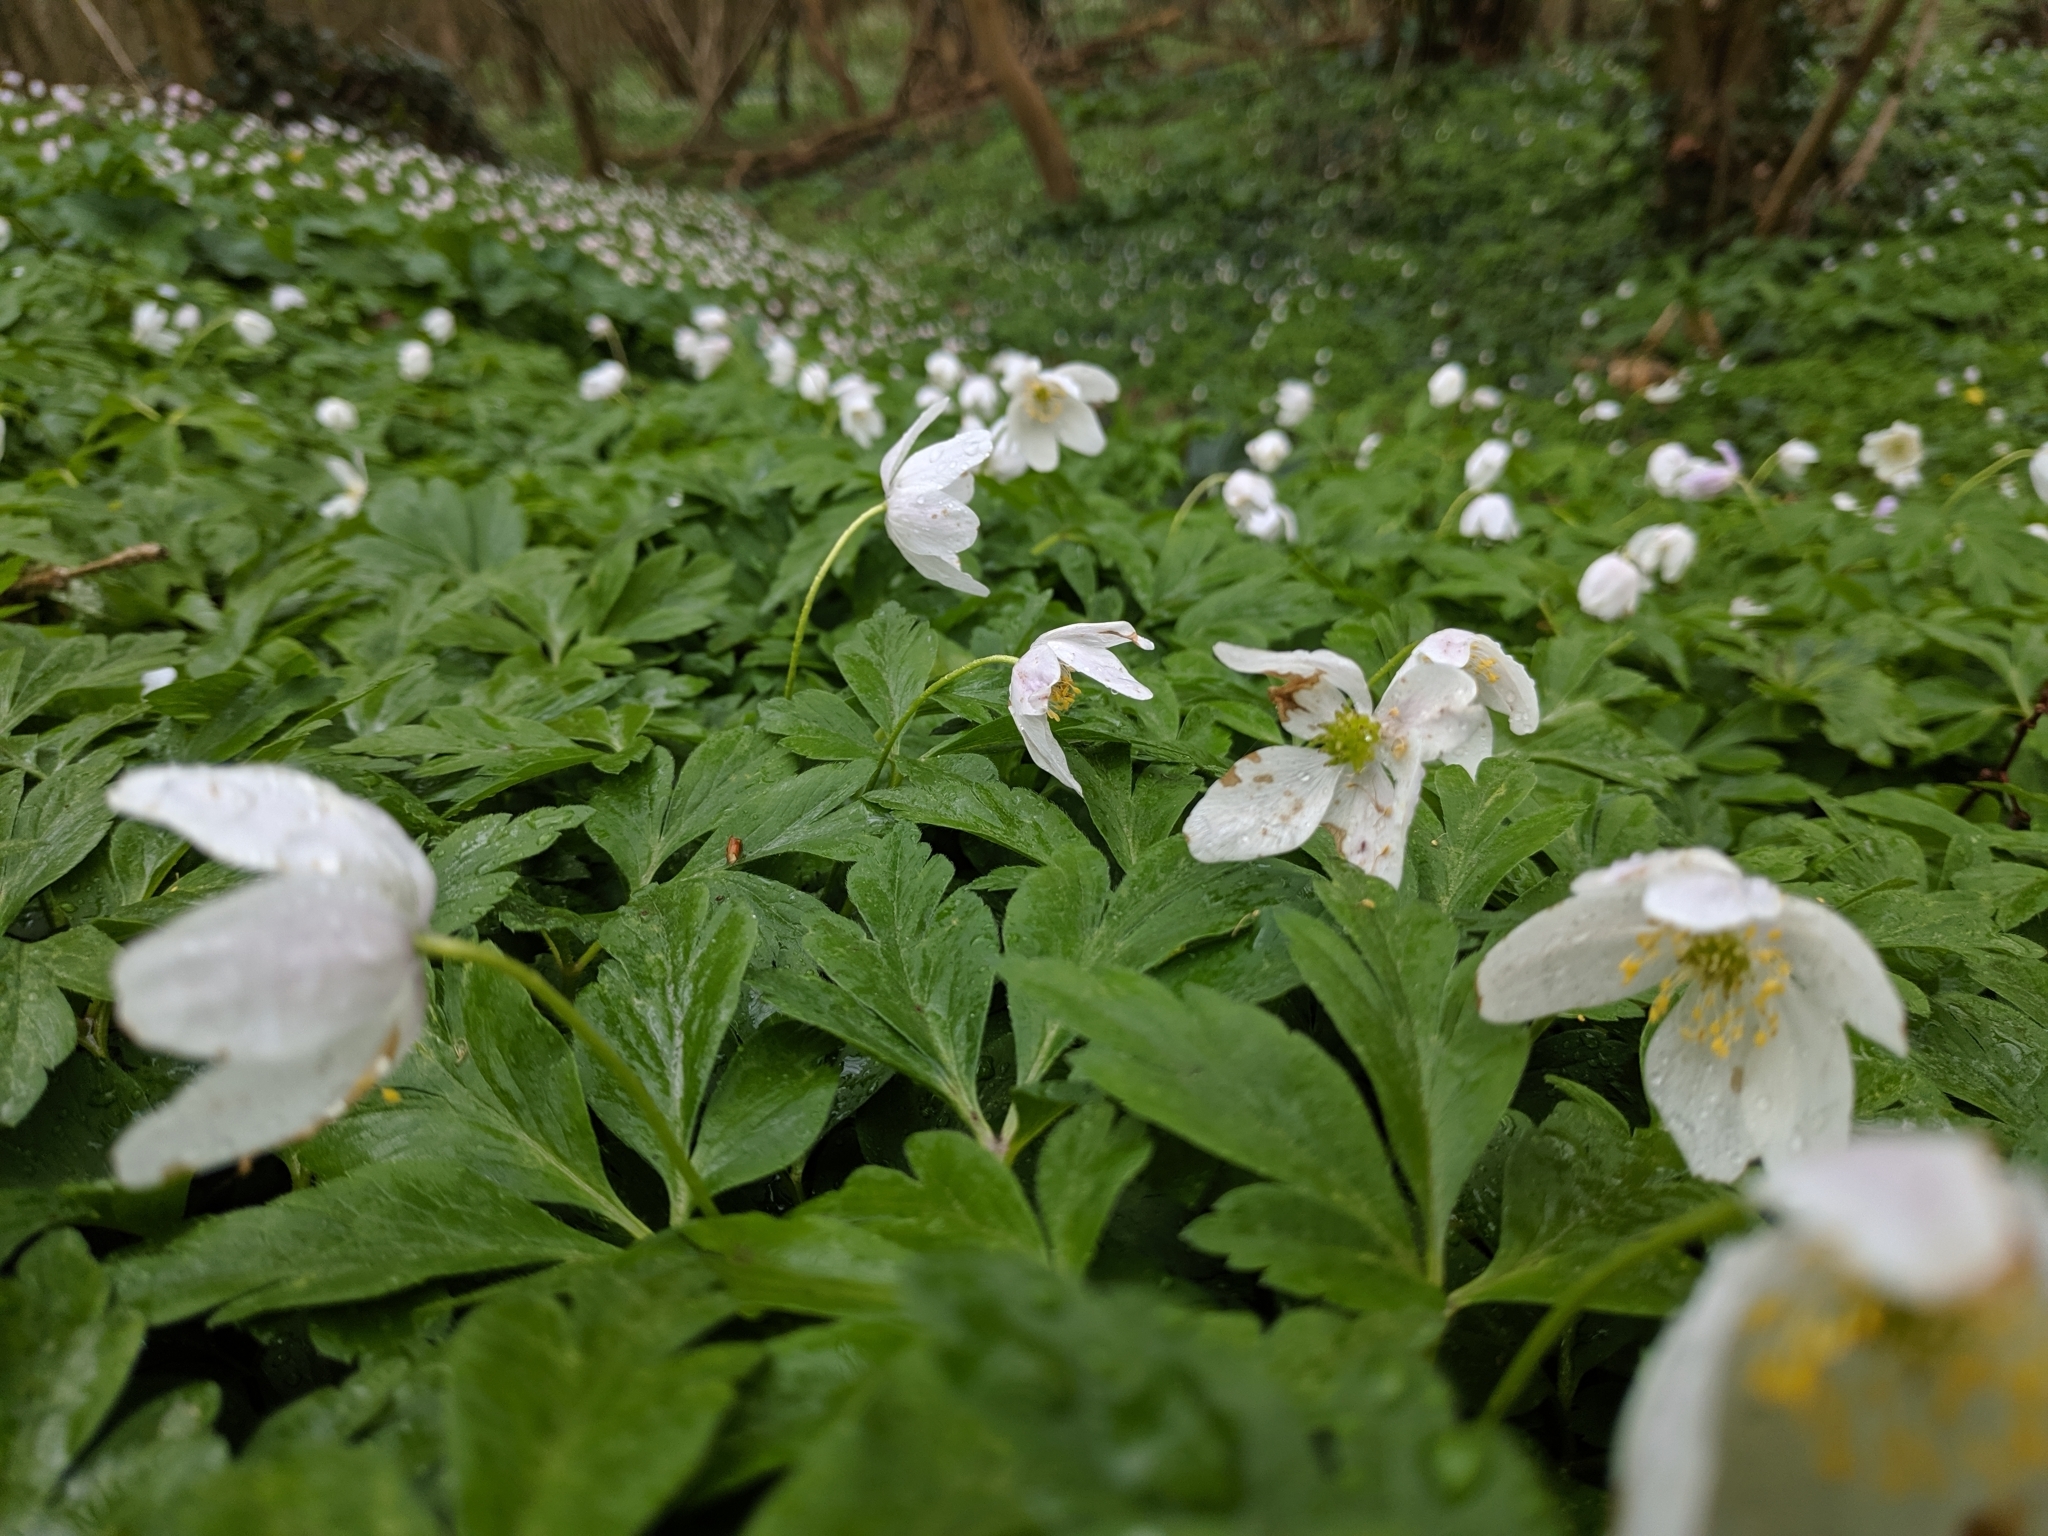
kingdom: Plantae
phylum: Tracheophyta
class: Magnoliopsida
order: Ranunculales
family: Ranunculaceae
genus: Anemone
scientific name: Anemone nemorosa
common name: Wood anemone
